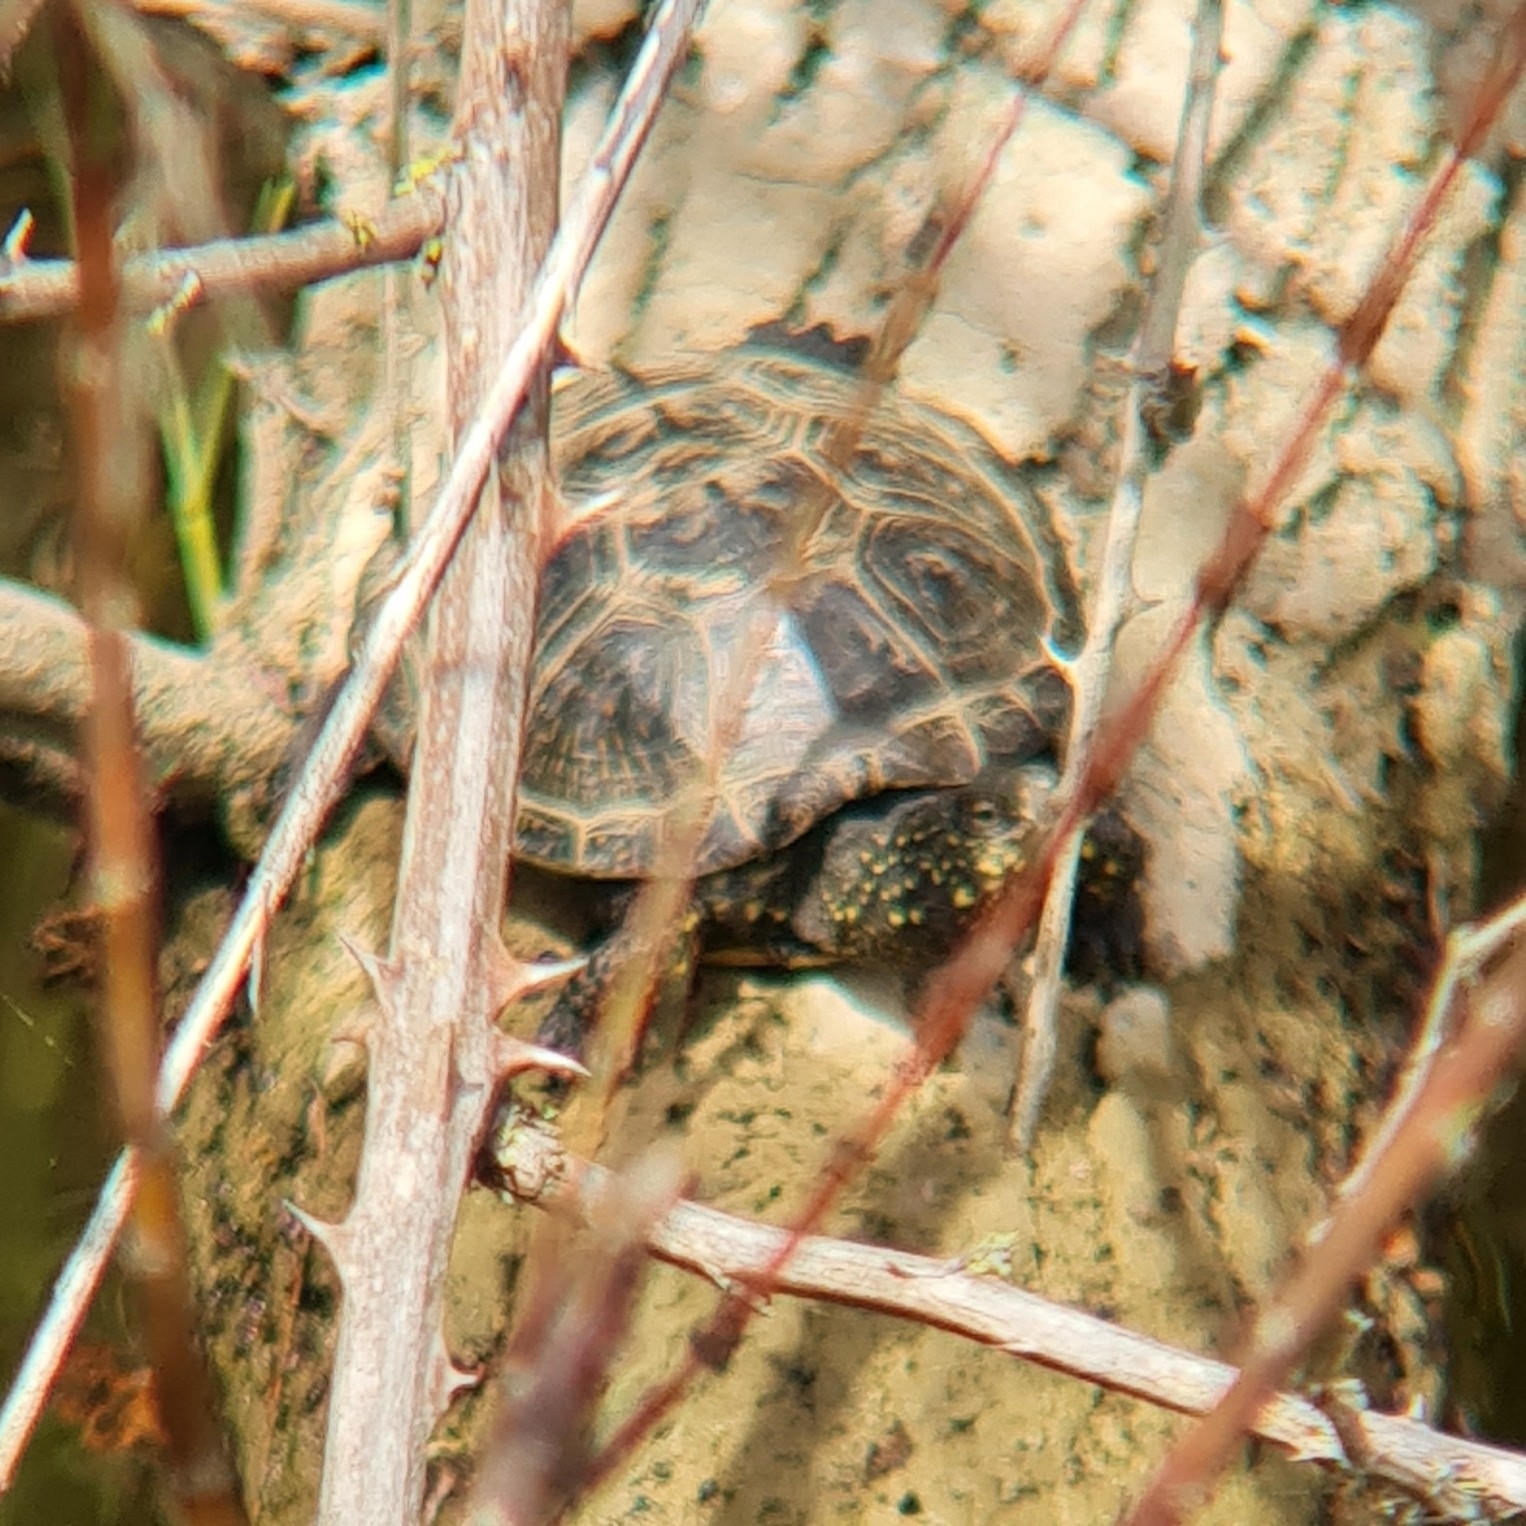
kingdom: Animalia
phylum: Chordata
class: Testudines
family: Emydidae
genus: Emys
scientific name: Emys orbicularis
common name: European pond turtle
